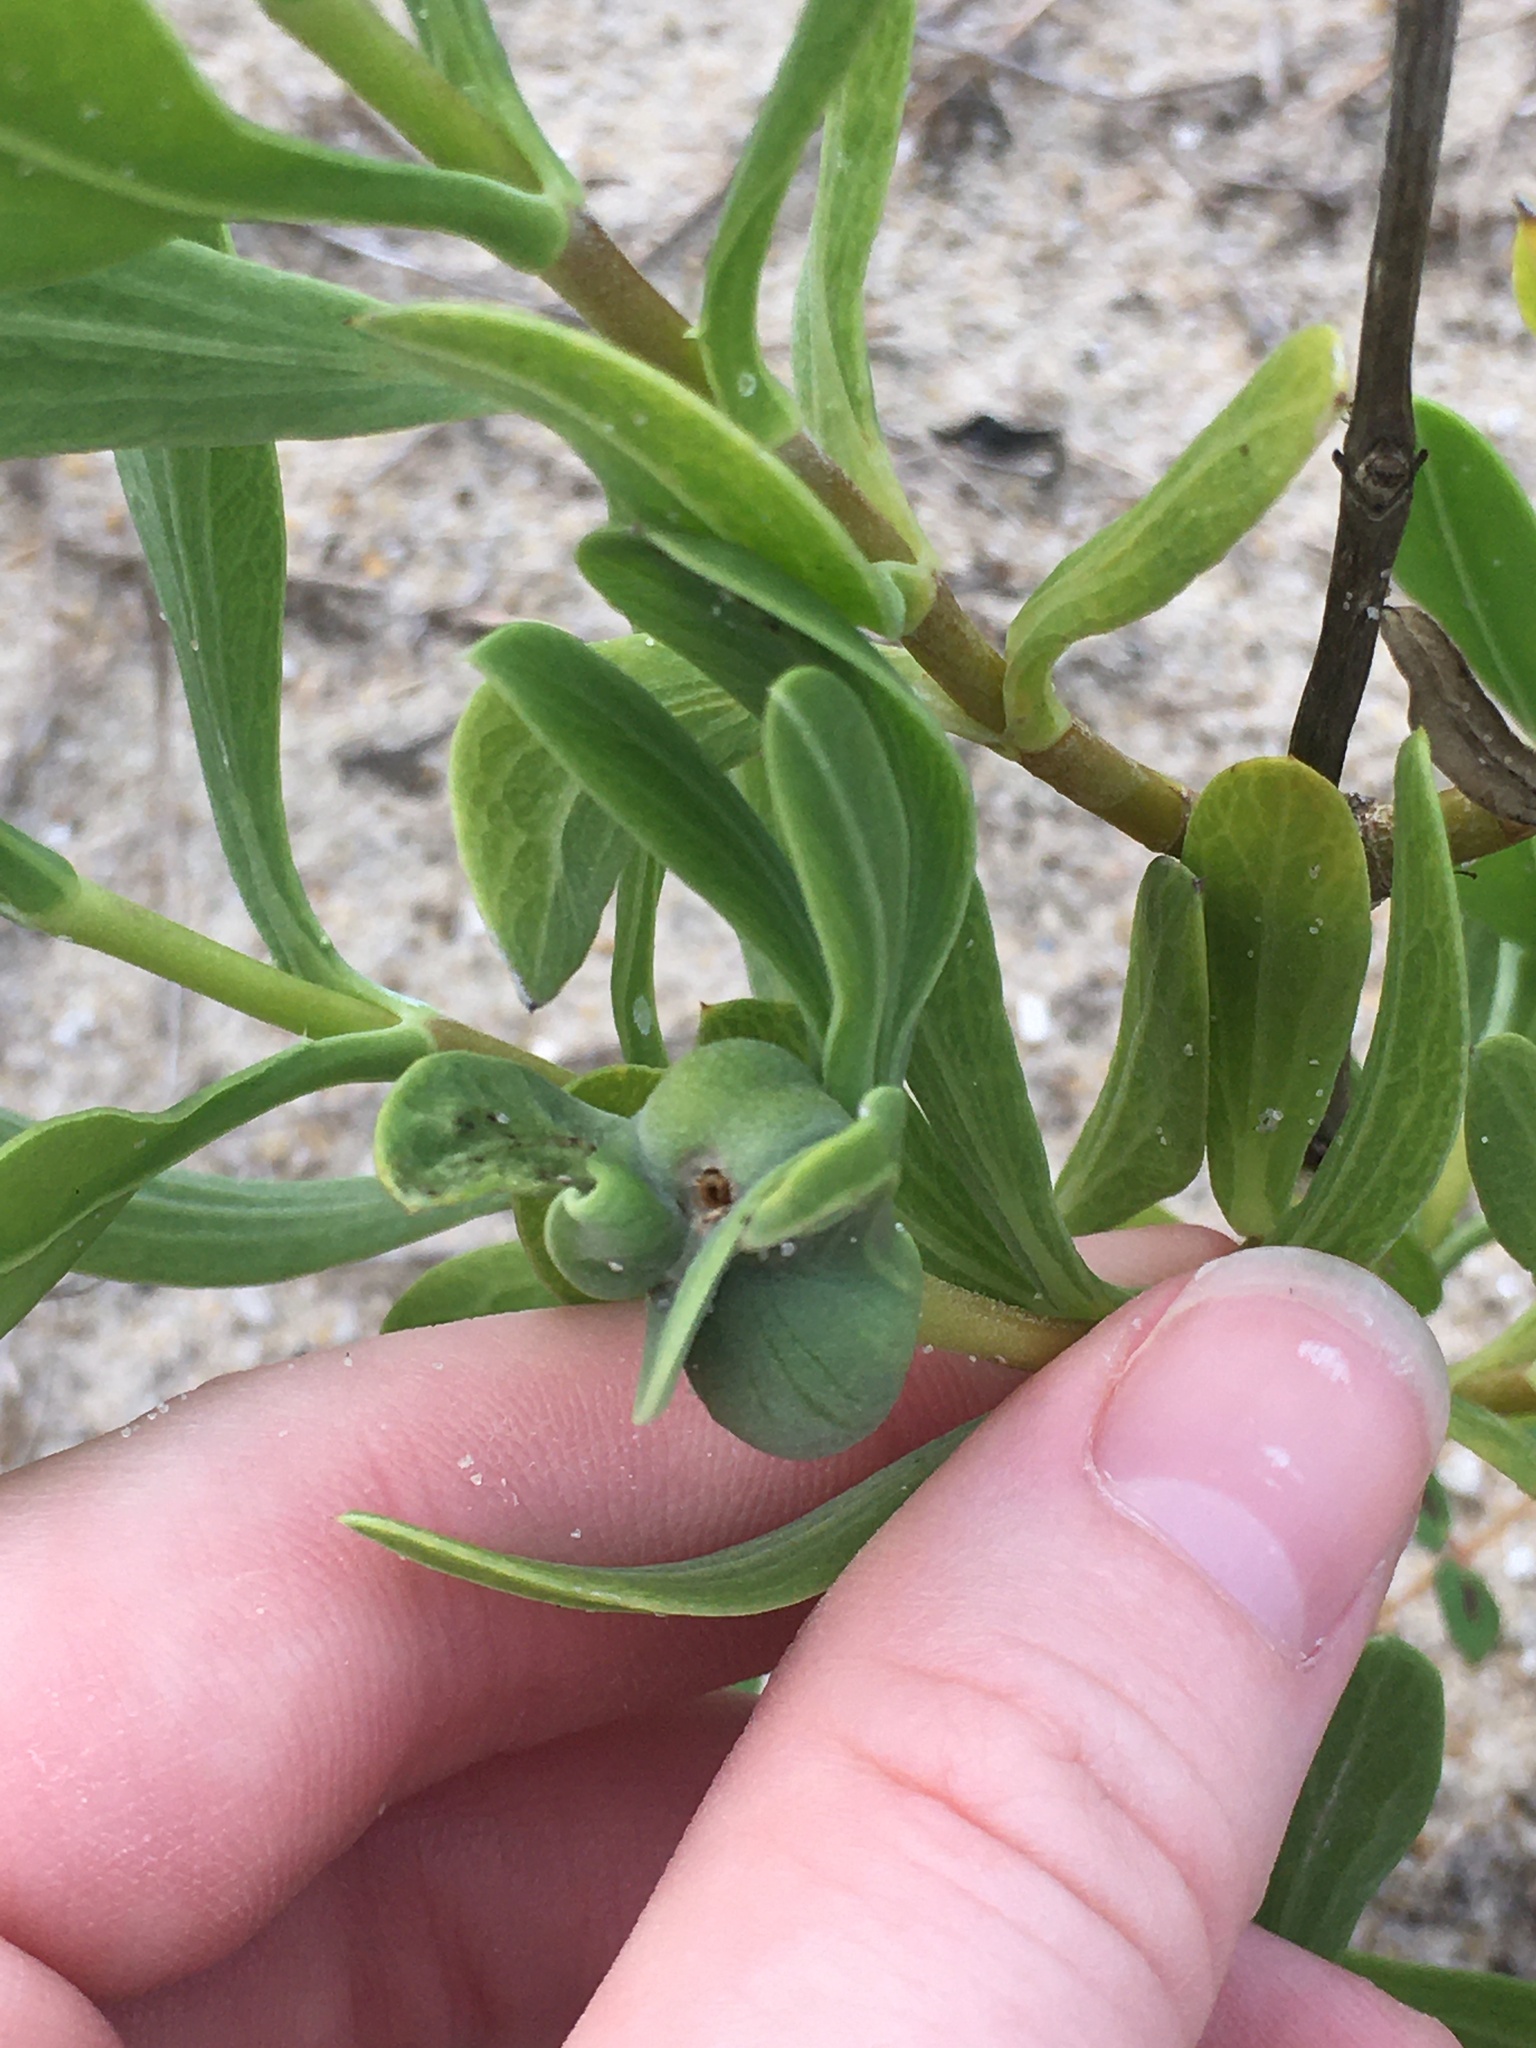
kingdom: Animalia
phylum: Arthropoda
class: Insecta
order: Diptera
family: Cecidomyiidae
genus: Asphondylia
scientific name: Asphondylia borrichiae
